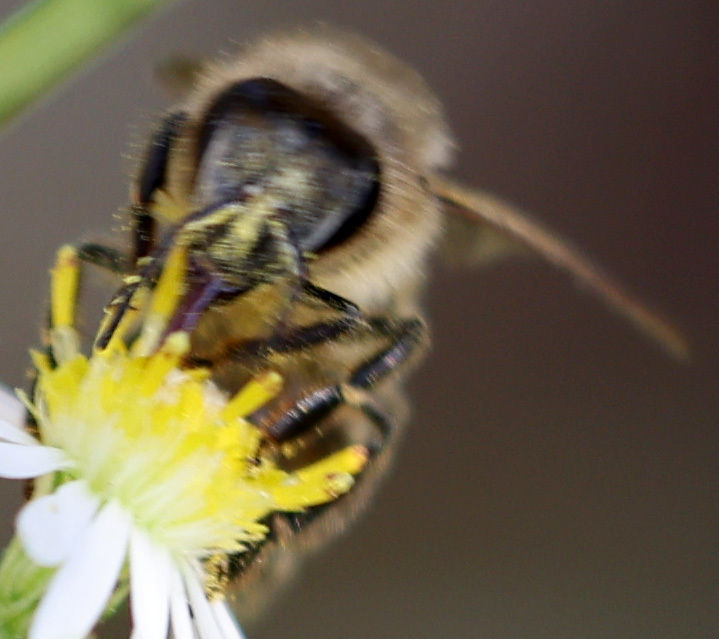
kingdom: Animalia
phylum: Arthropoda
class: Insecta
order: Hymenoptera
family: Apidae
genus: Apis
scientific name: Apis mellifera
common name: Honey bee
